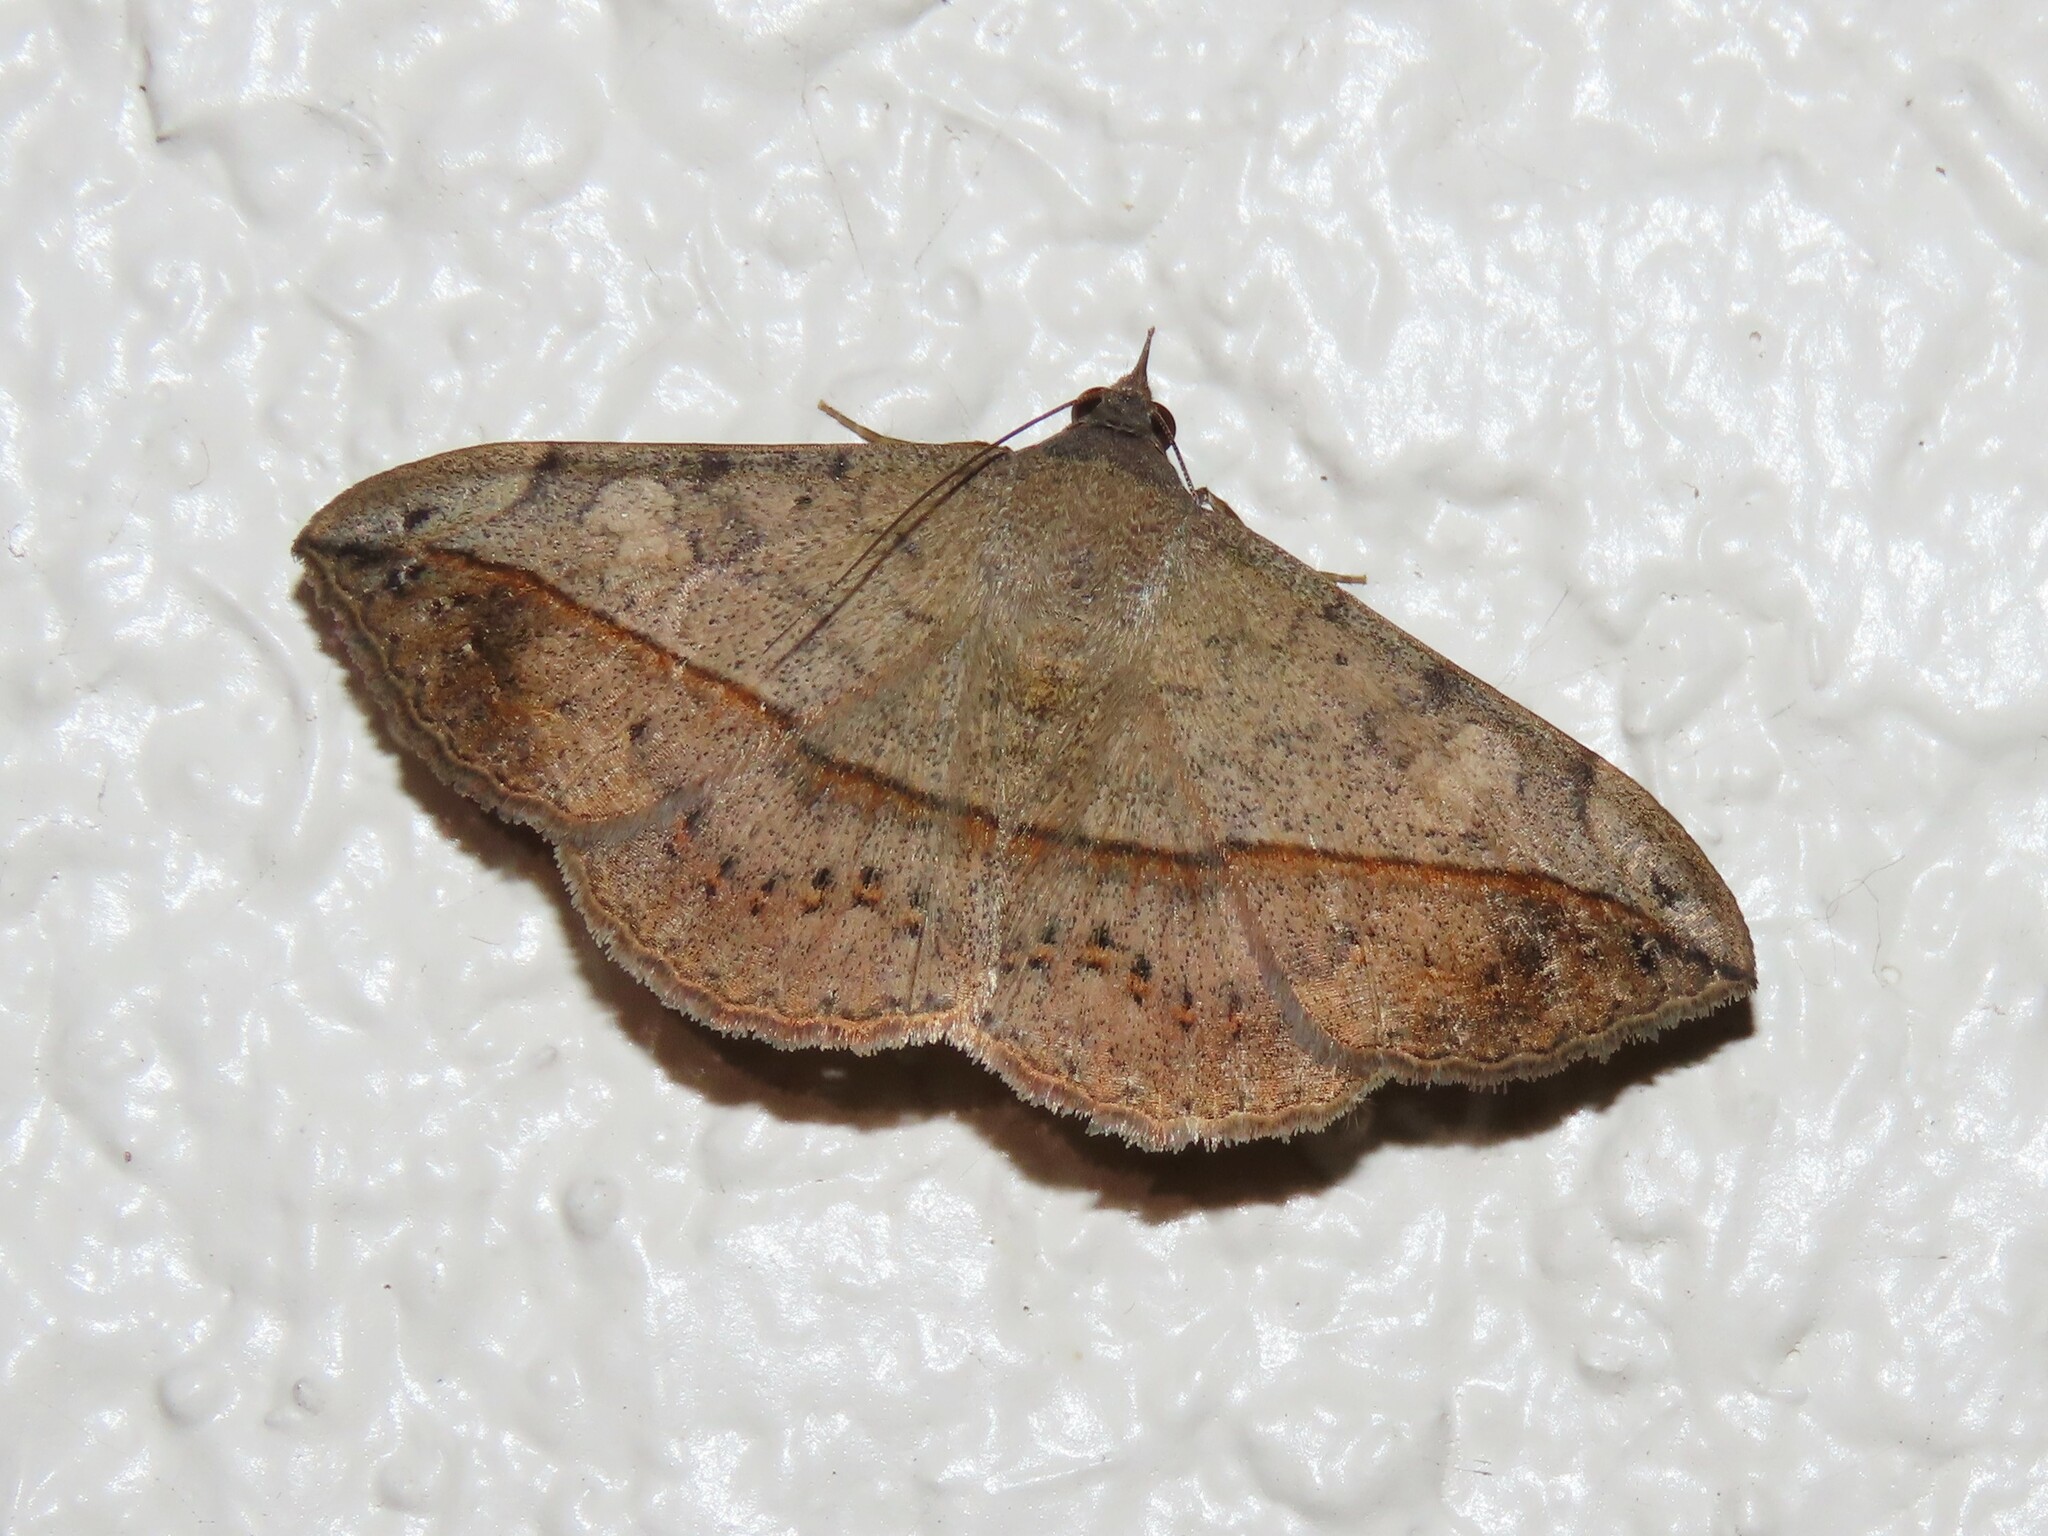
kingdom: Animalia
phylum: Arthropoda
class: Insecta
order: Lepidoptera
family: Erebidae
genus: Anticarsia
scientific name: Anticarsia gemmatalis
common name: Cutworm moth
